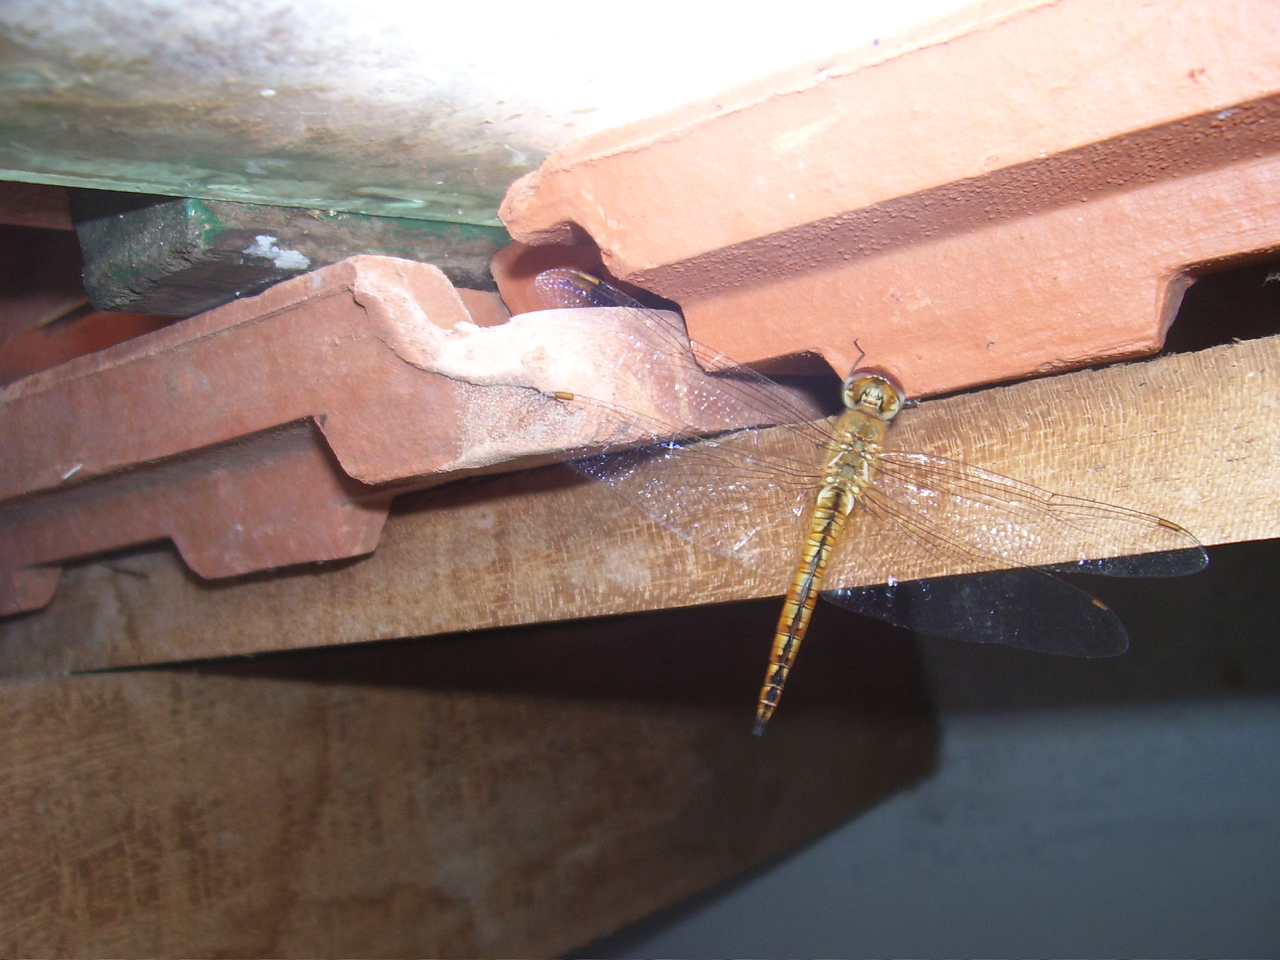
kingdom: Animalia
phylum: Arthropoda
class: Insecta
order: Odonata
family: Libellulidae
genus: Pantala
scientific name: Pantala flavescens
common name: Wandering glider
